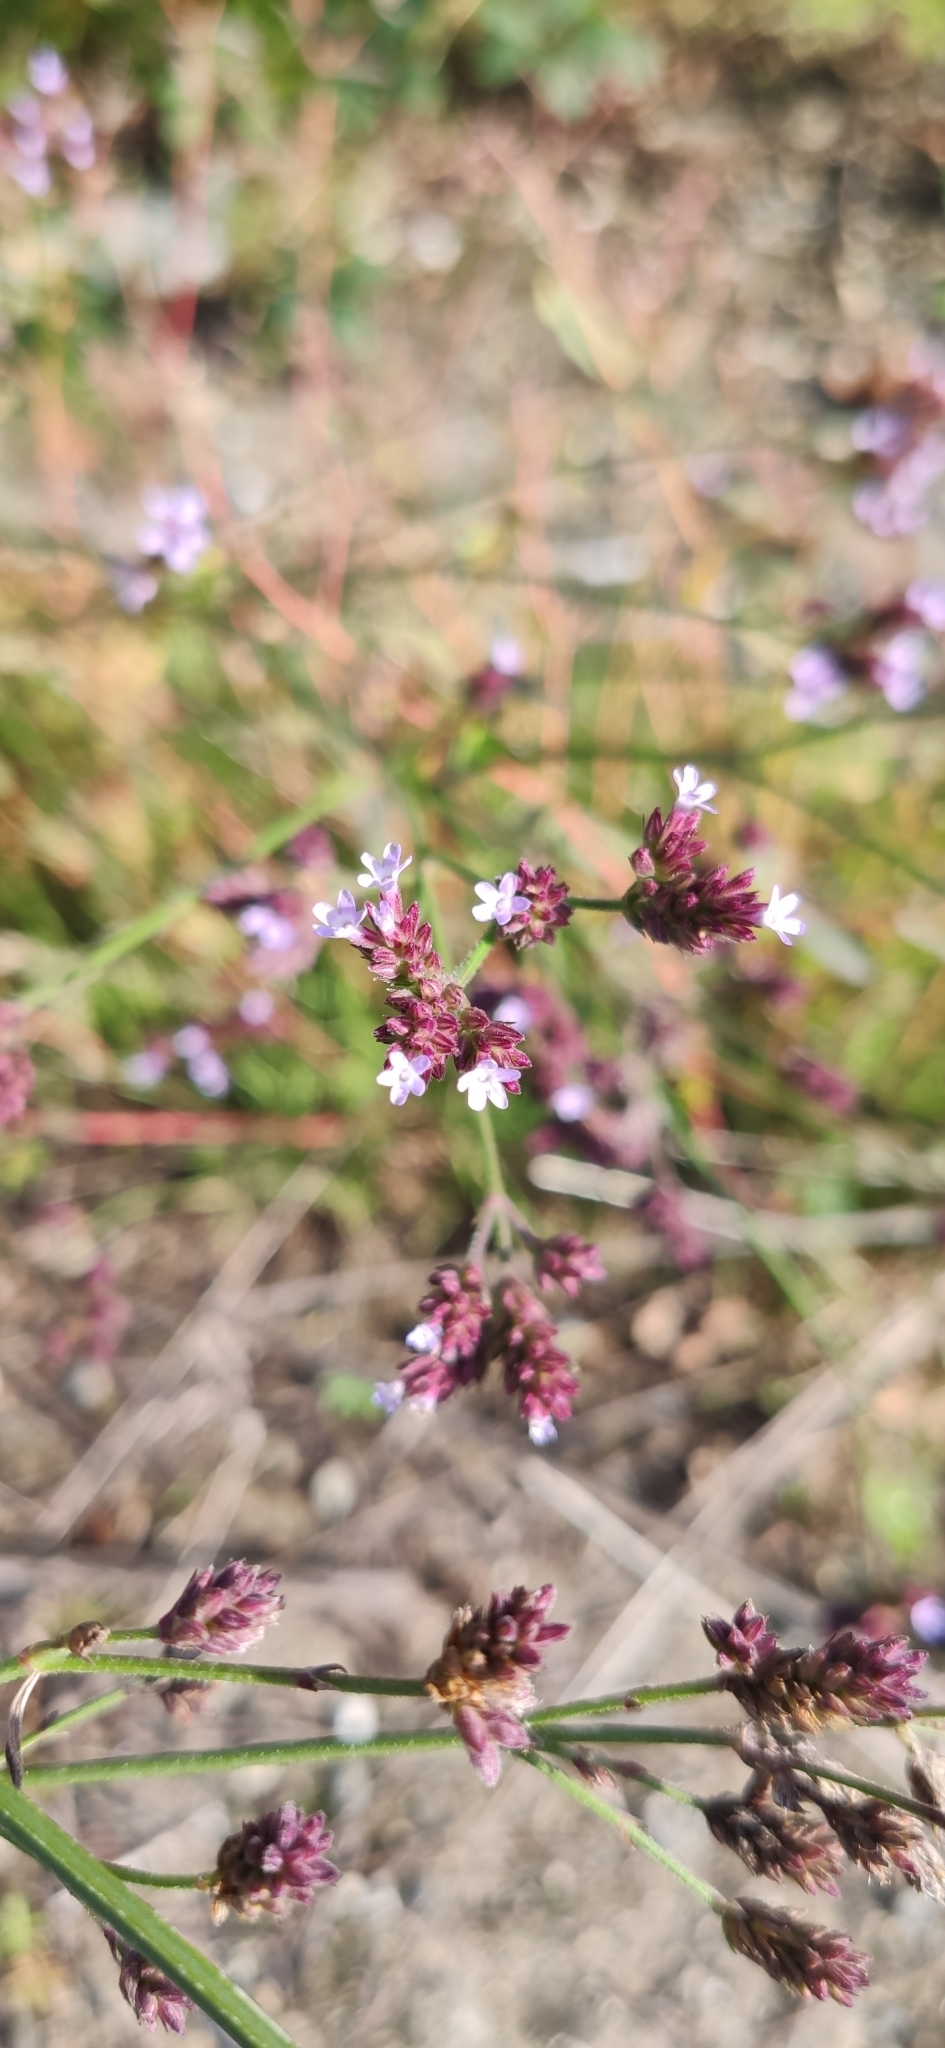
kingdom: Plantae
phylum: Tracheophyta
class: Magnoliopsida
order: Lamiales
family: Verbenaceae
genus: Verbena
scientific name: Verbena officinalis
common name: Vervain
